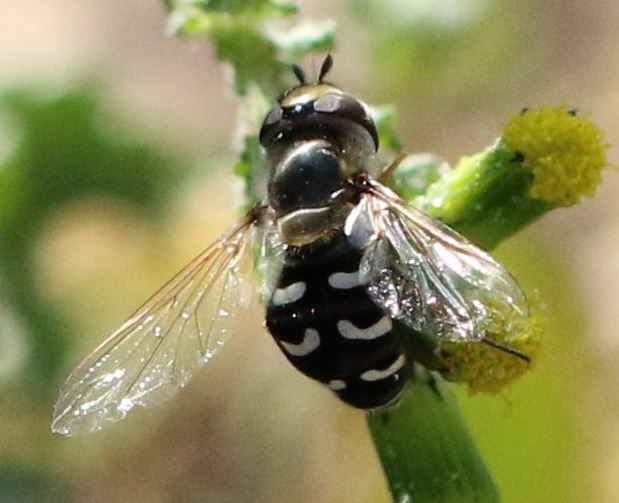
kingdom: Animalia
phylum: Arthropoda
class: Insecta
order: Diptera
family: Syrphidae
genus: Scaeva
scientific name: Scaeva pyrastri
